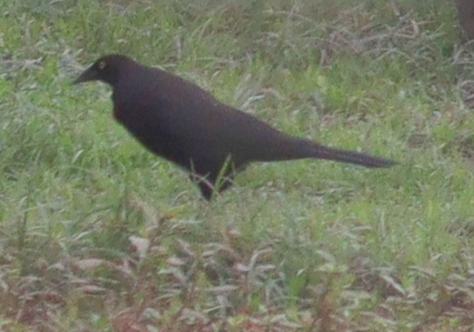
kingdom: Animalia
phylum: Chordata
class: Aves
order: Passeriformes
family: Icteridae
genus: Molothrus
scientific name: Molothrus oryzivorus
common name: Giant cowbird
